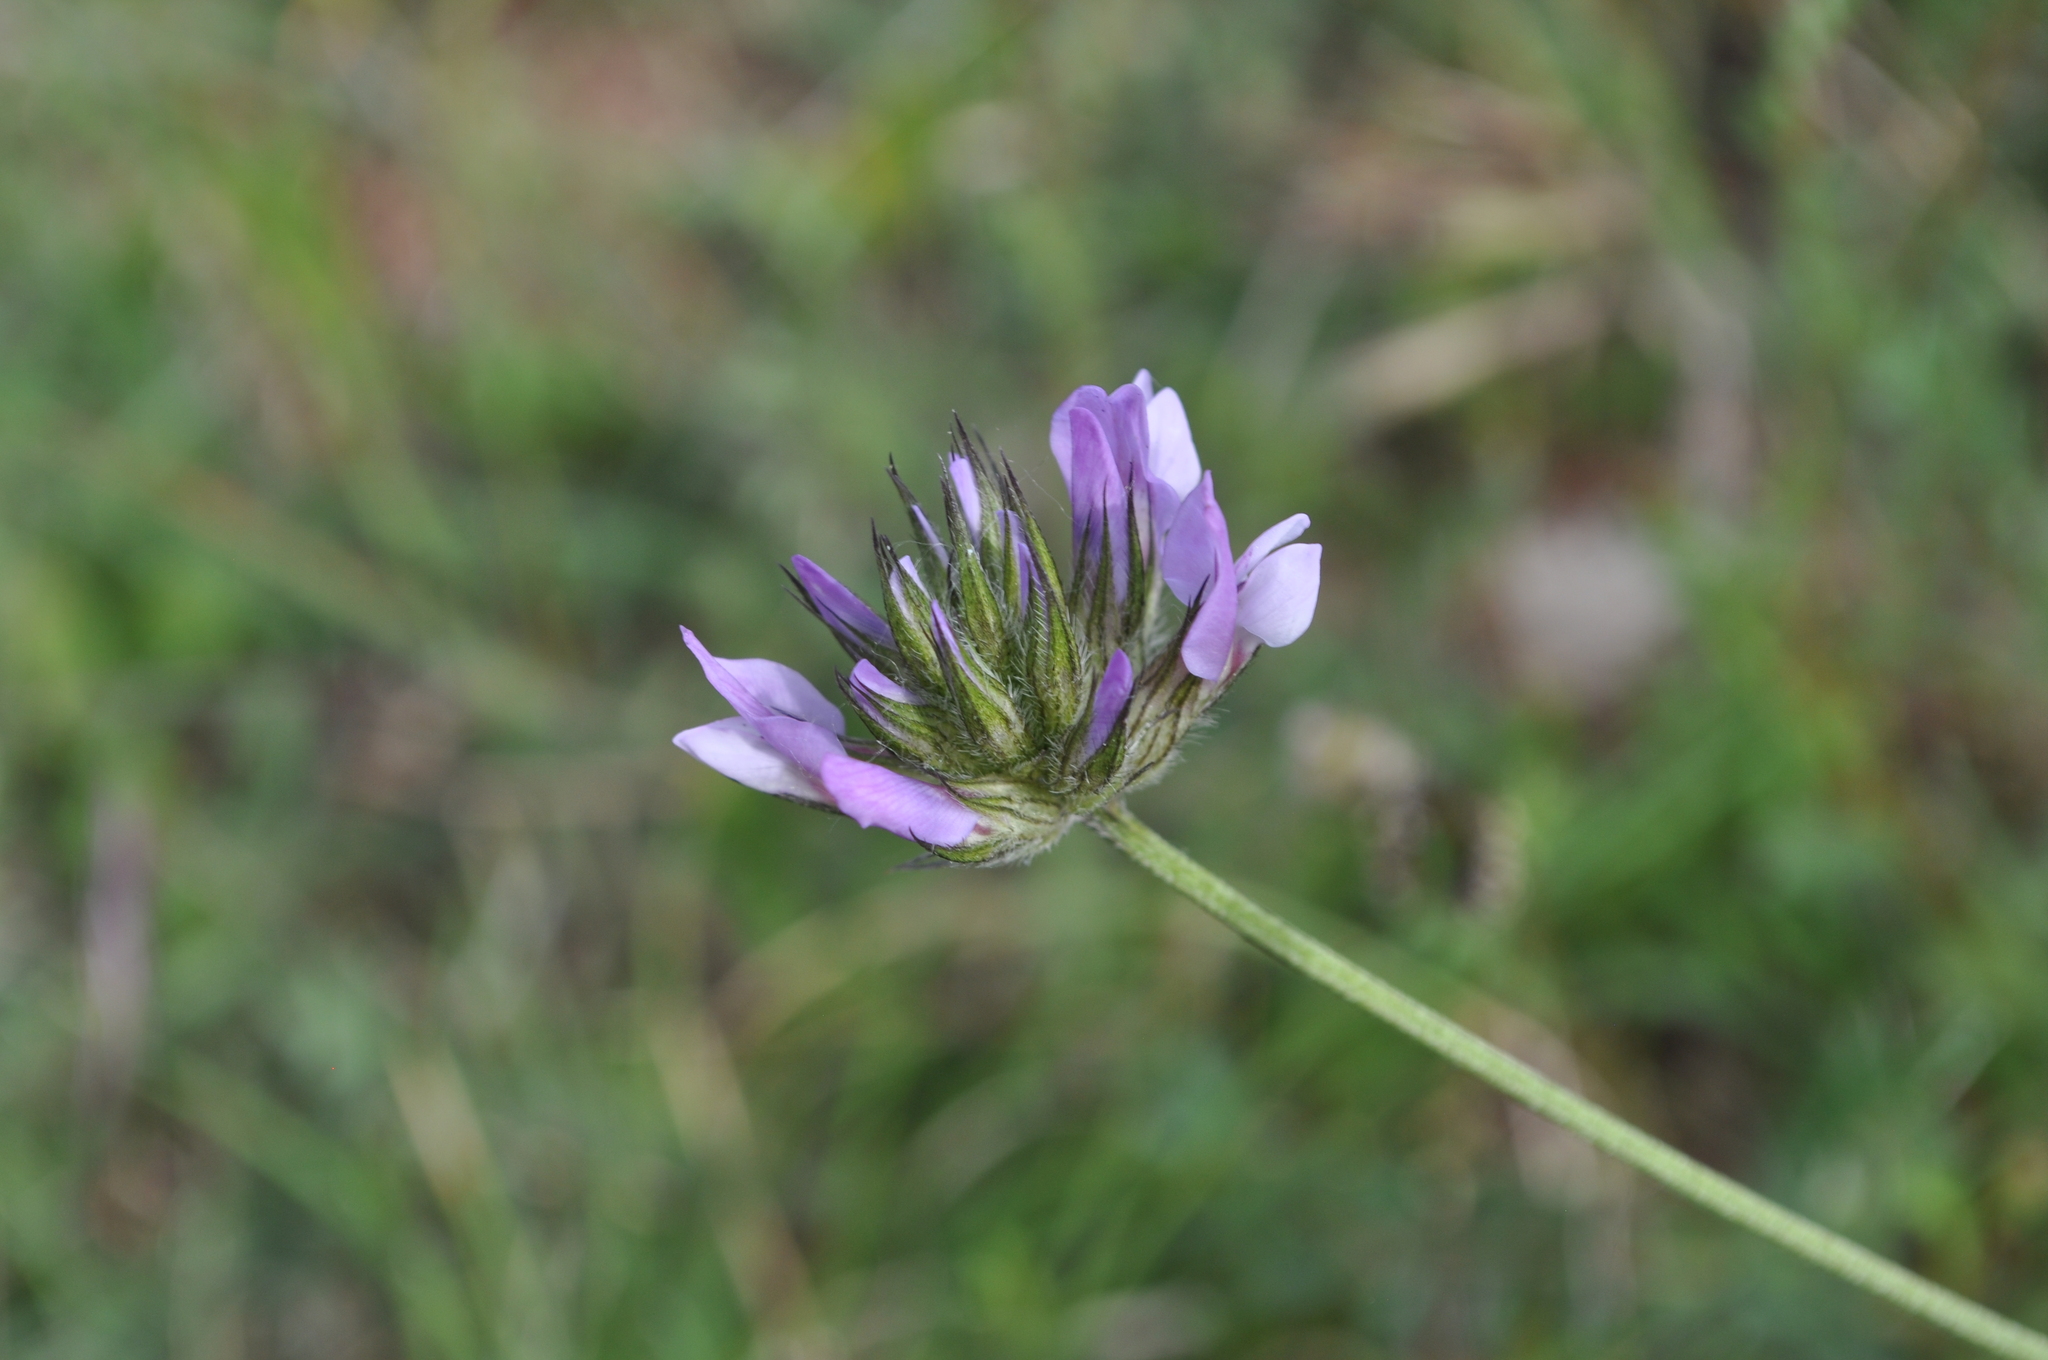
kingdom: Plantae
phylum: Tracheophyta
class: Magnoliopsida
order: Fabales
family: Fabaceae
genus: Bituminaria
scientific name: Bituminaria bituminosa
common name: Arabian pea
